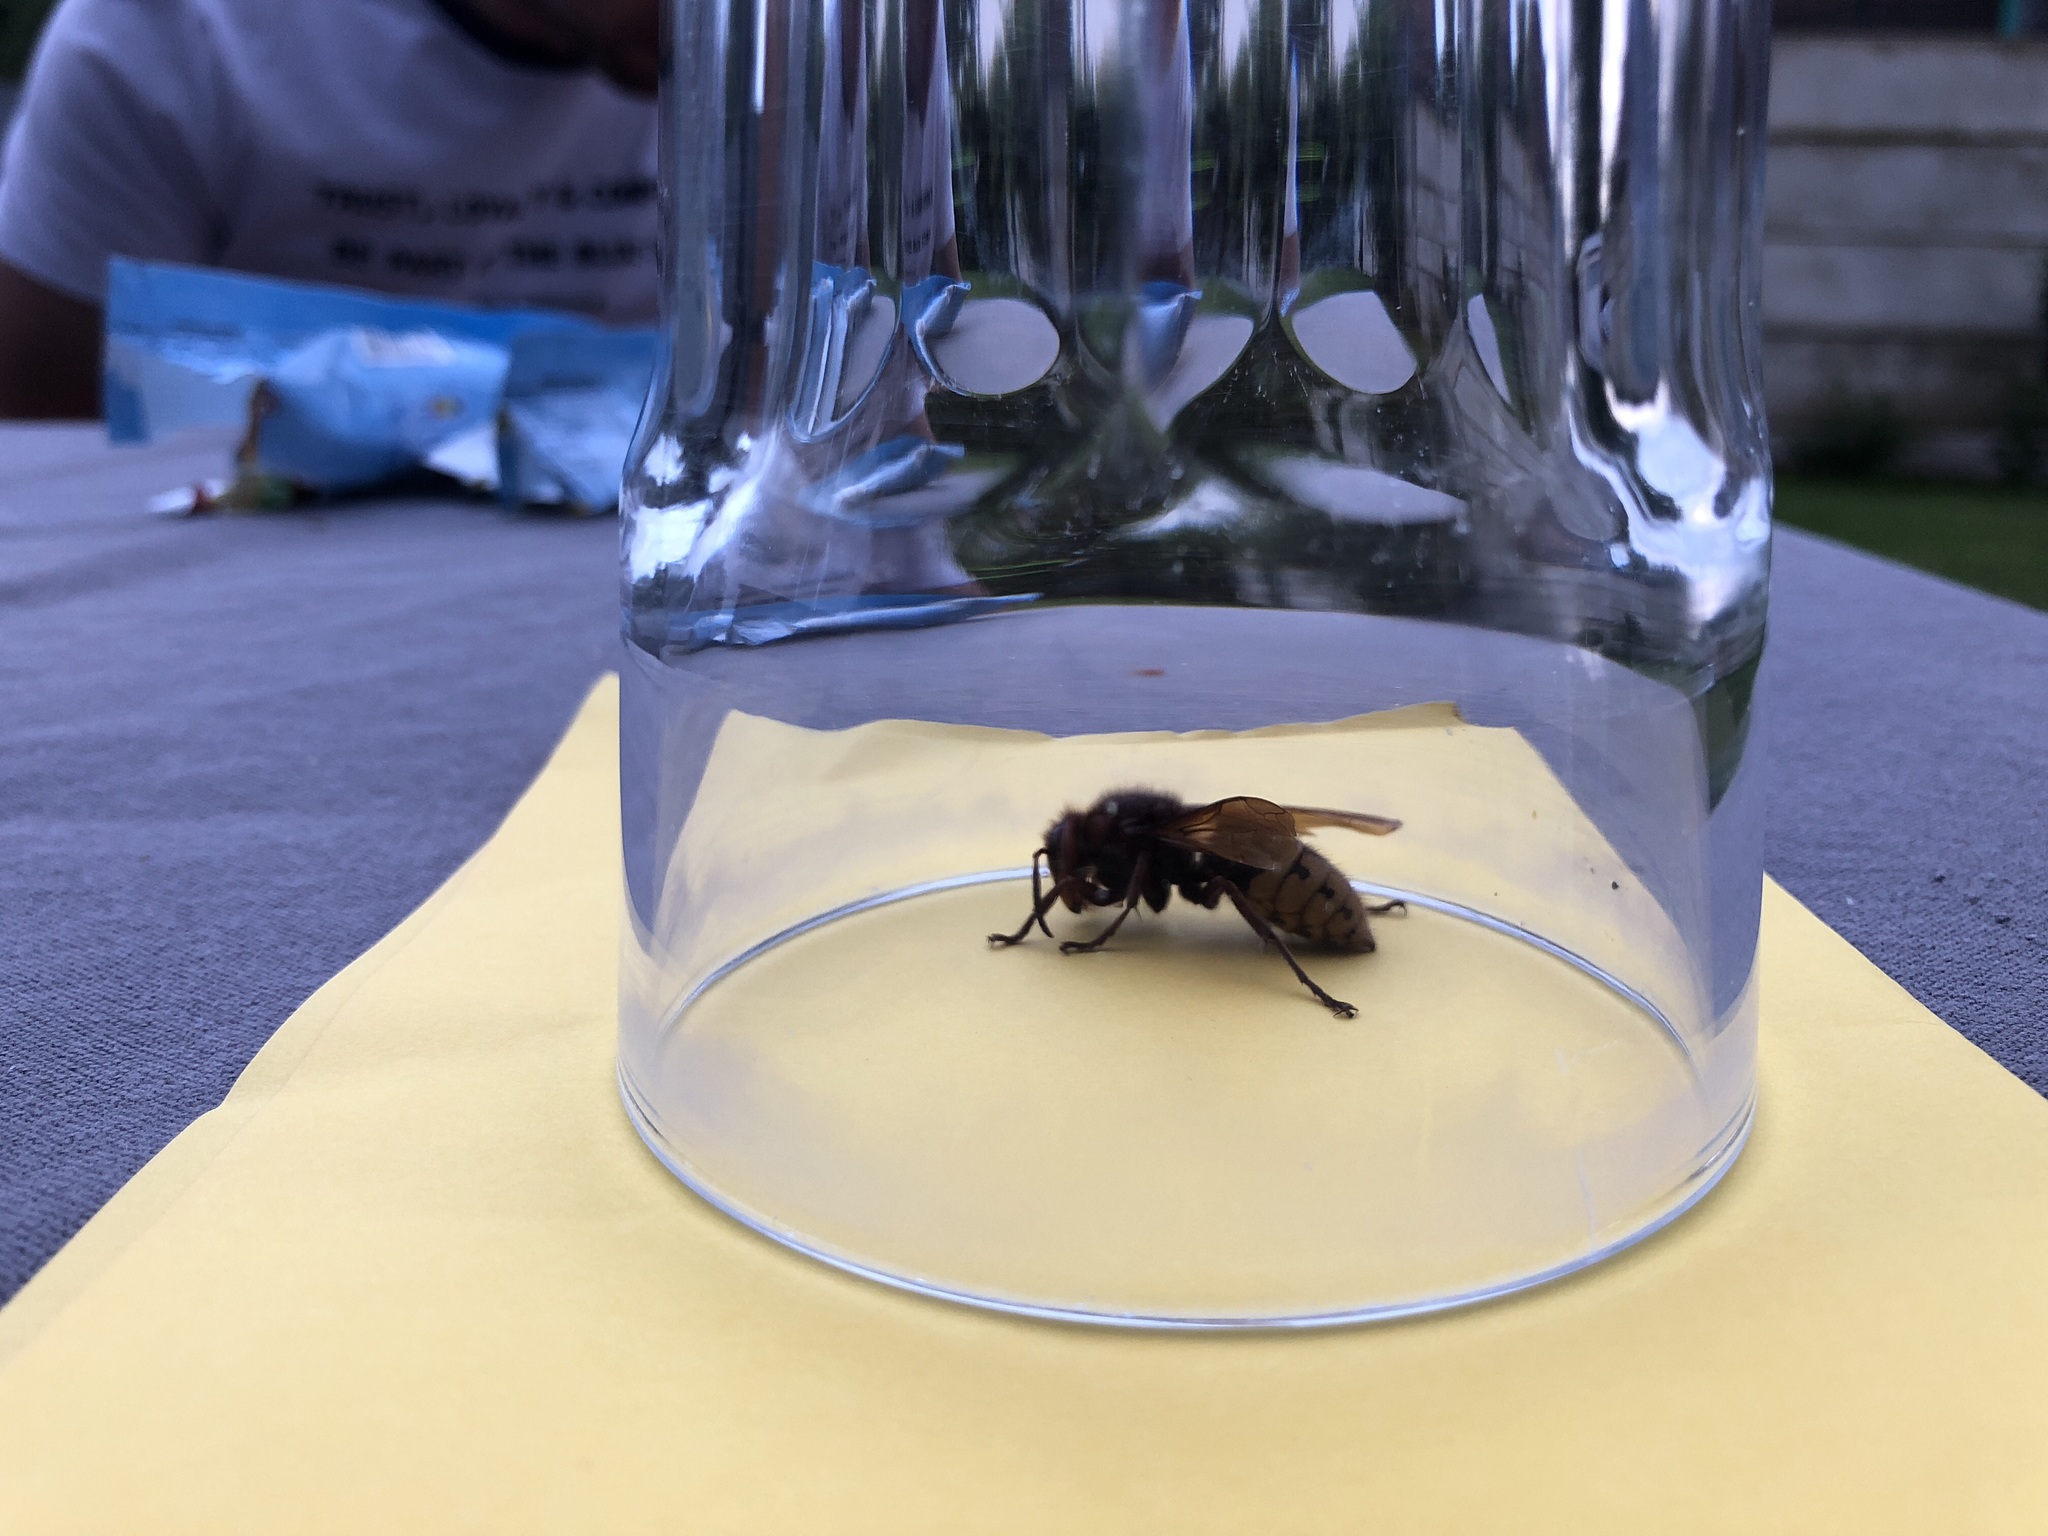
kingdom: Animalia
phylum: Arthropoda
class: Insecta
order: Hymenoptera
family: Vespidae
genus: Vespa
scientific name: Vespa crabro
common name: Hornet
